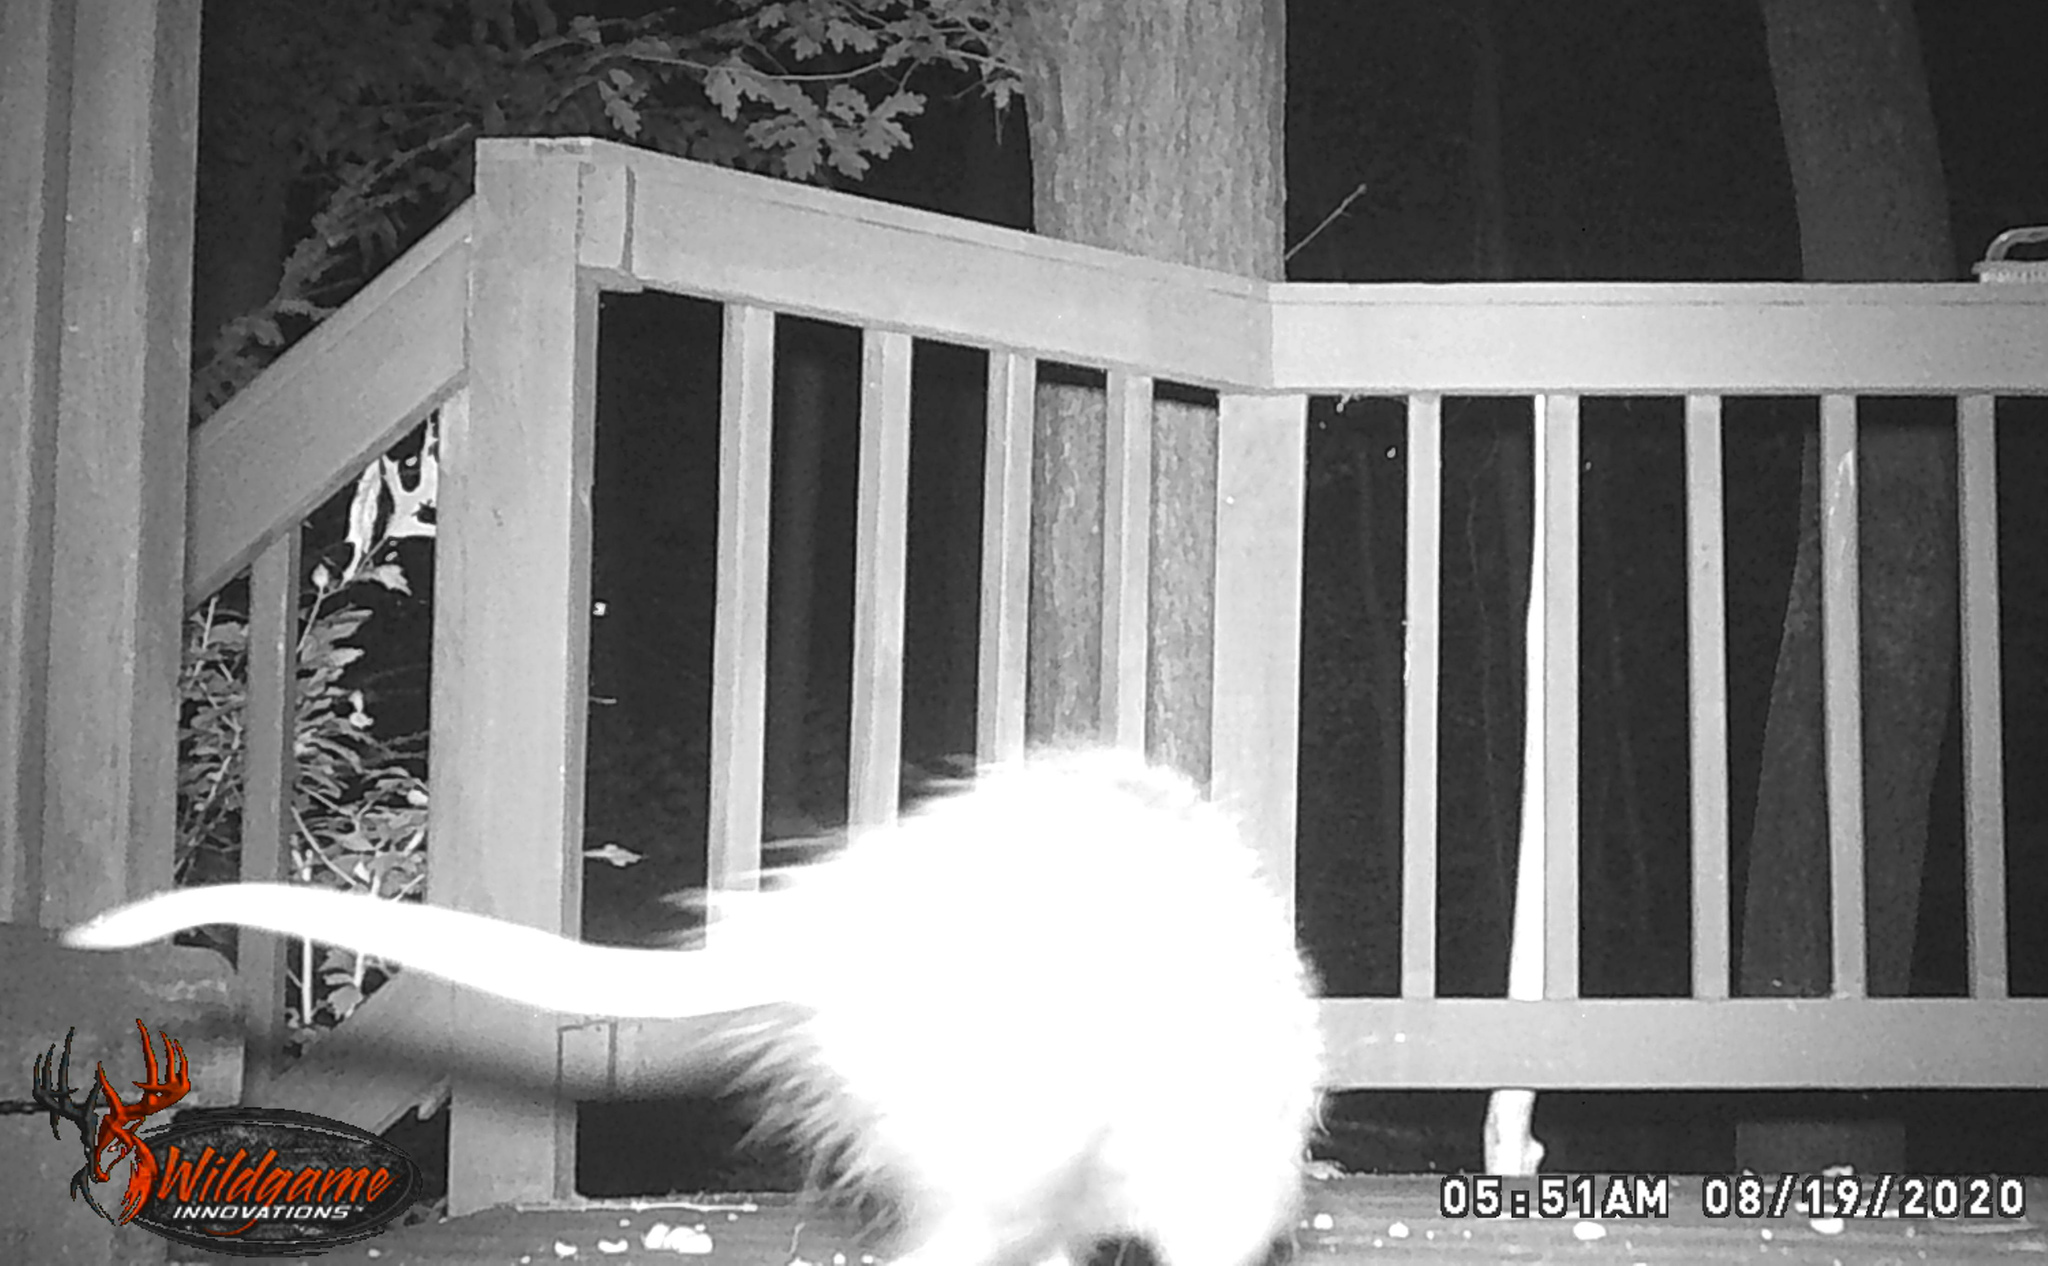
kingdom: Animalia
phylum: Chordata
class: Mammalia
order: Didelphimorphia
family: Didelphidae
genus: Didelphis
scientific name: Didelphis virginiana
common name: Virginia opossum
